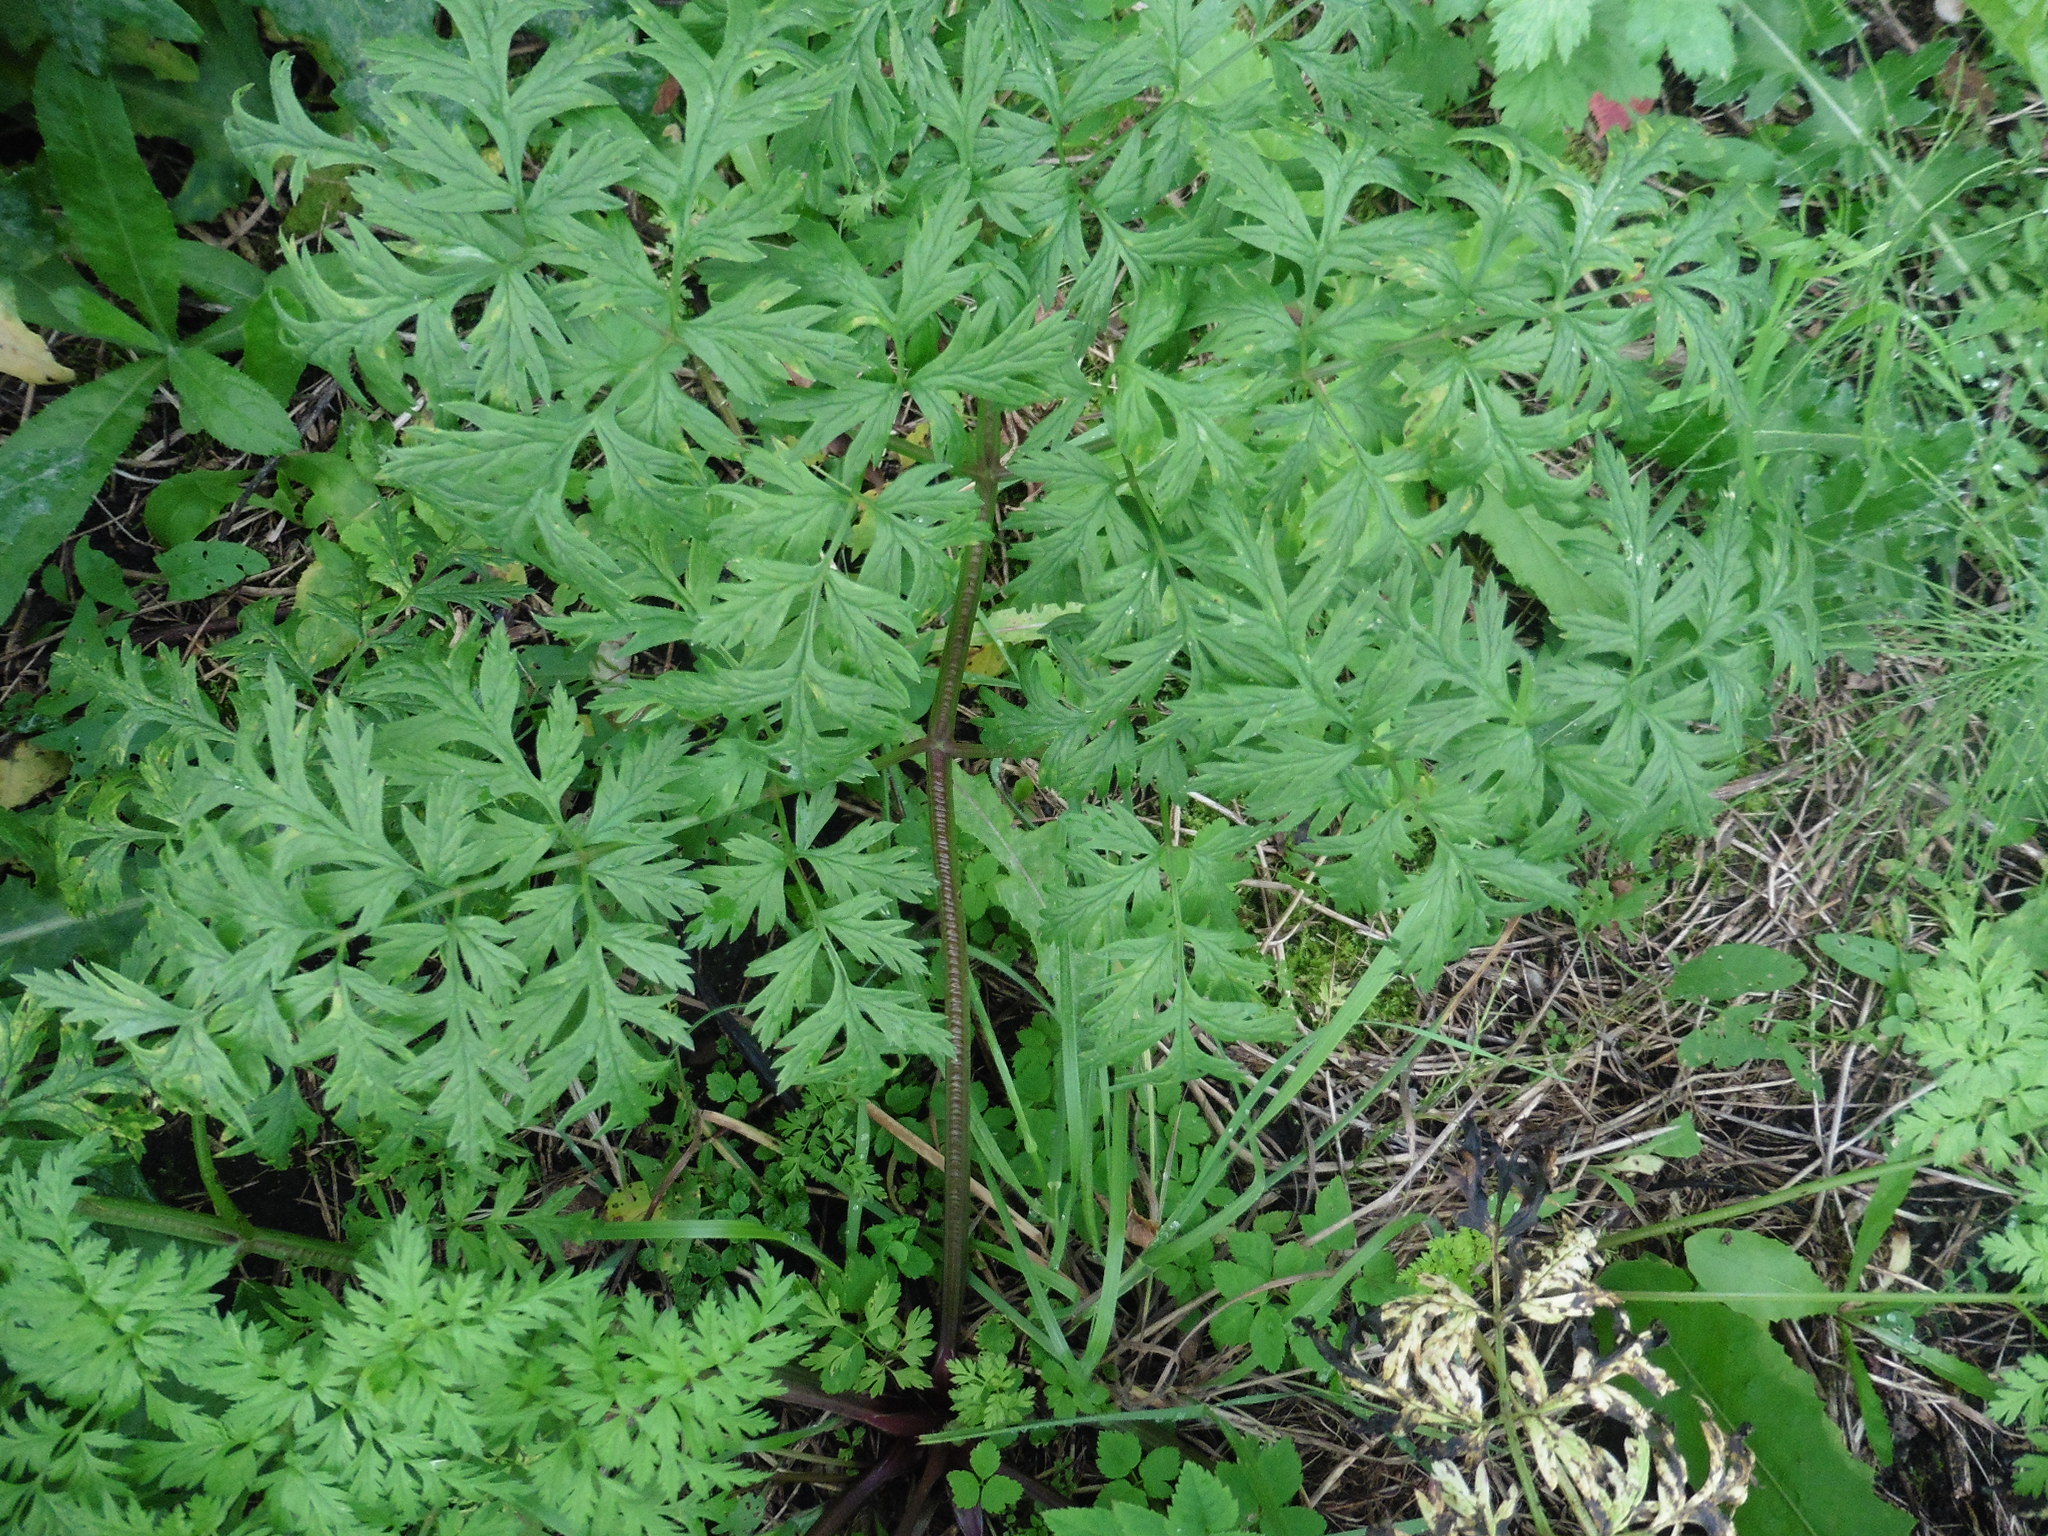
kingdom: Plantae
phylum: Tracheophyta
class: Magnoliopsida
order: Apiales
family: Apiaceae
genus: Anthriscus
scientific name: Anthriscus sylvestris
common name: Cow parsley
